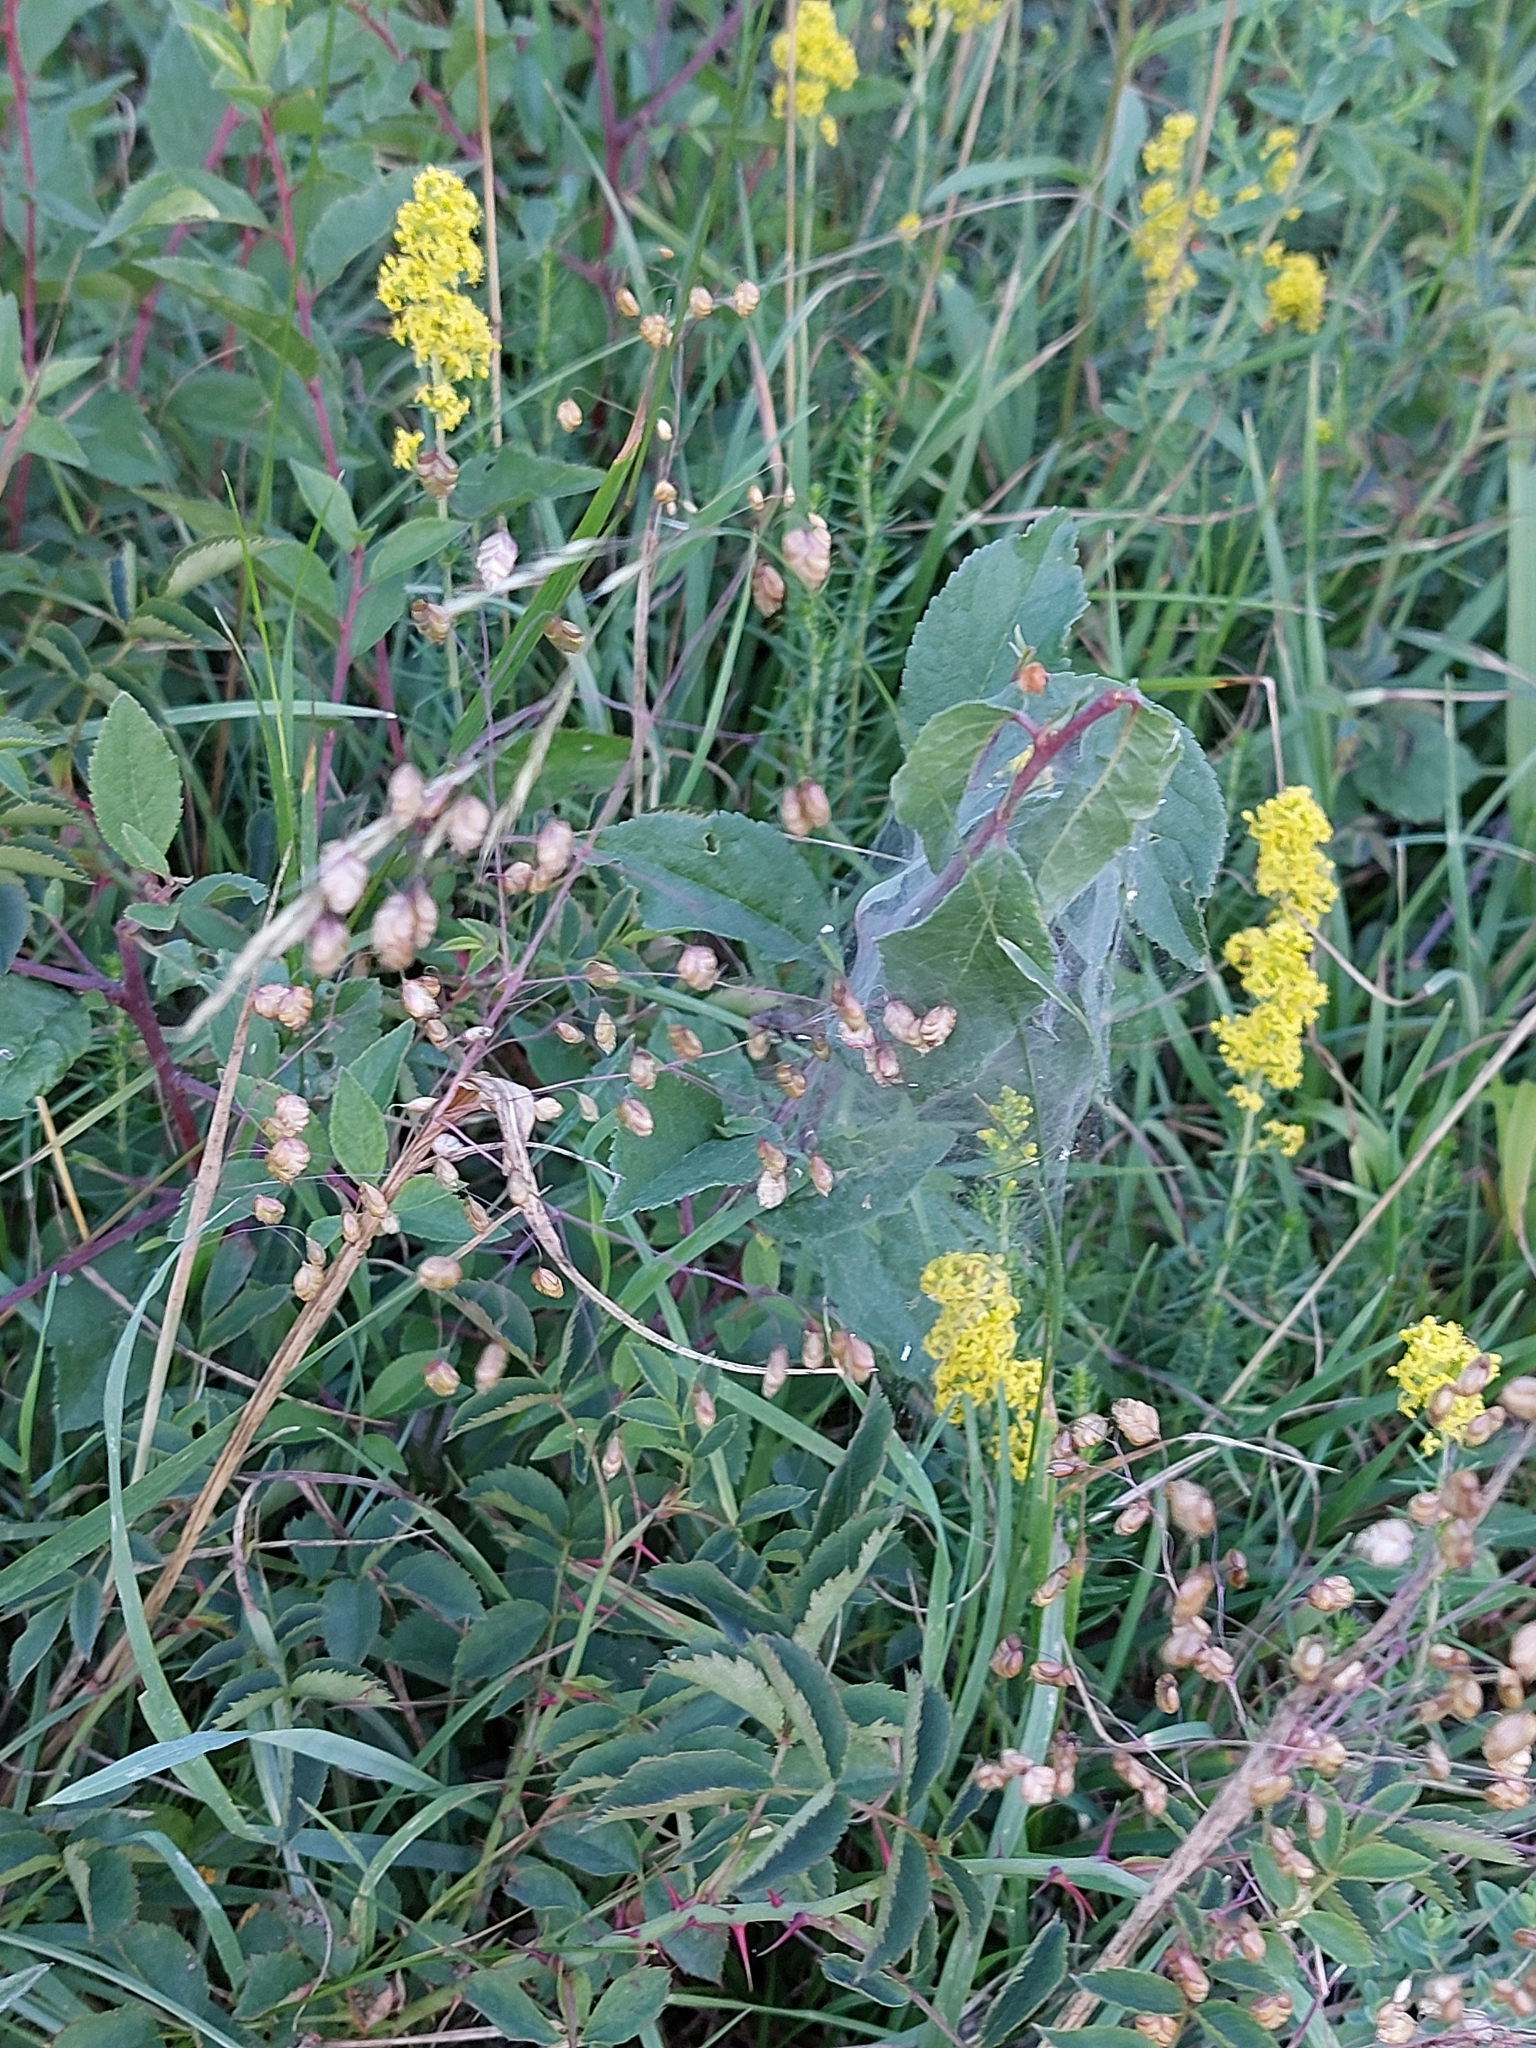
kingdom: Plantae
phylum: Tracheophyta
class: Liliopsida
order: Poales
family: Poaceae
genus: Briza
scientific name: Briza media
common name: Quaking grass
